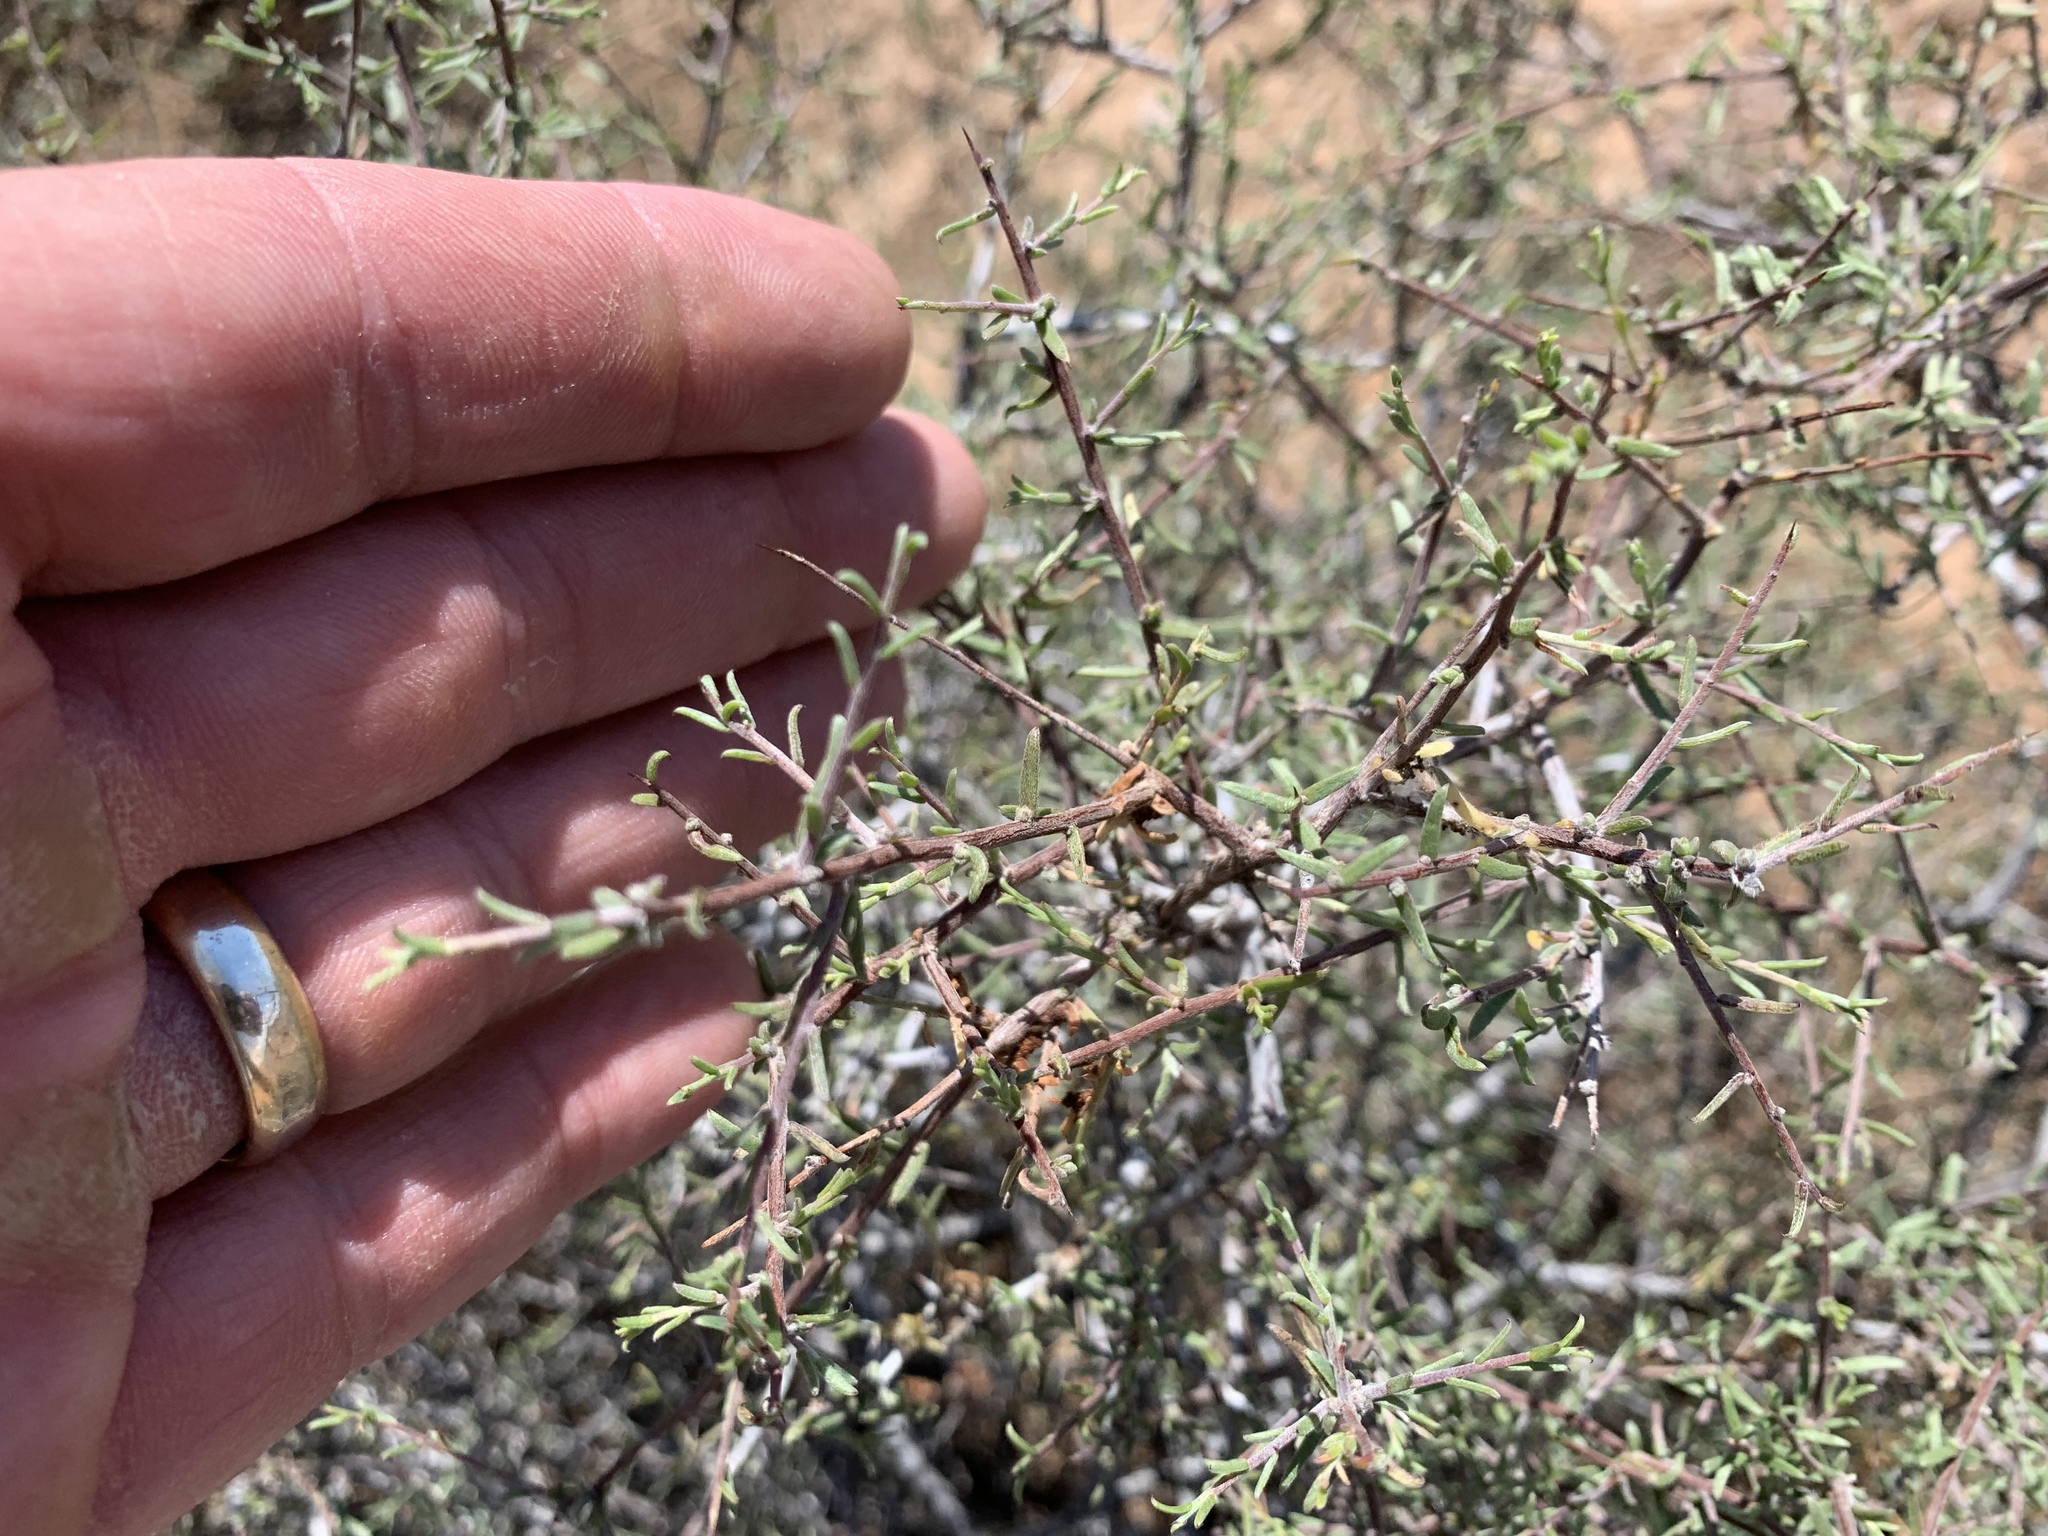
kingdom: Plantae
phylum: Tracheophyta
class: Magnoliopsida
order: Zygophyllales
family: Krameriaceae
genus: Krameria
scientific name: Krameria erecta
